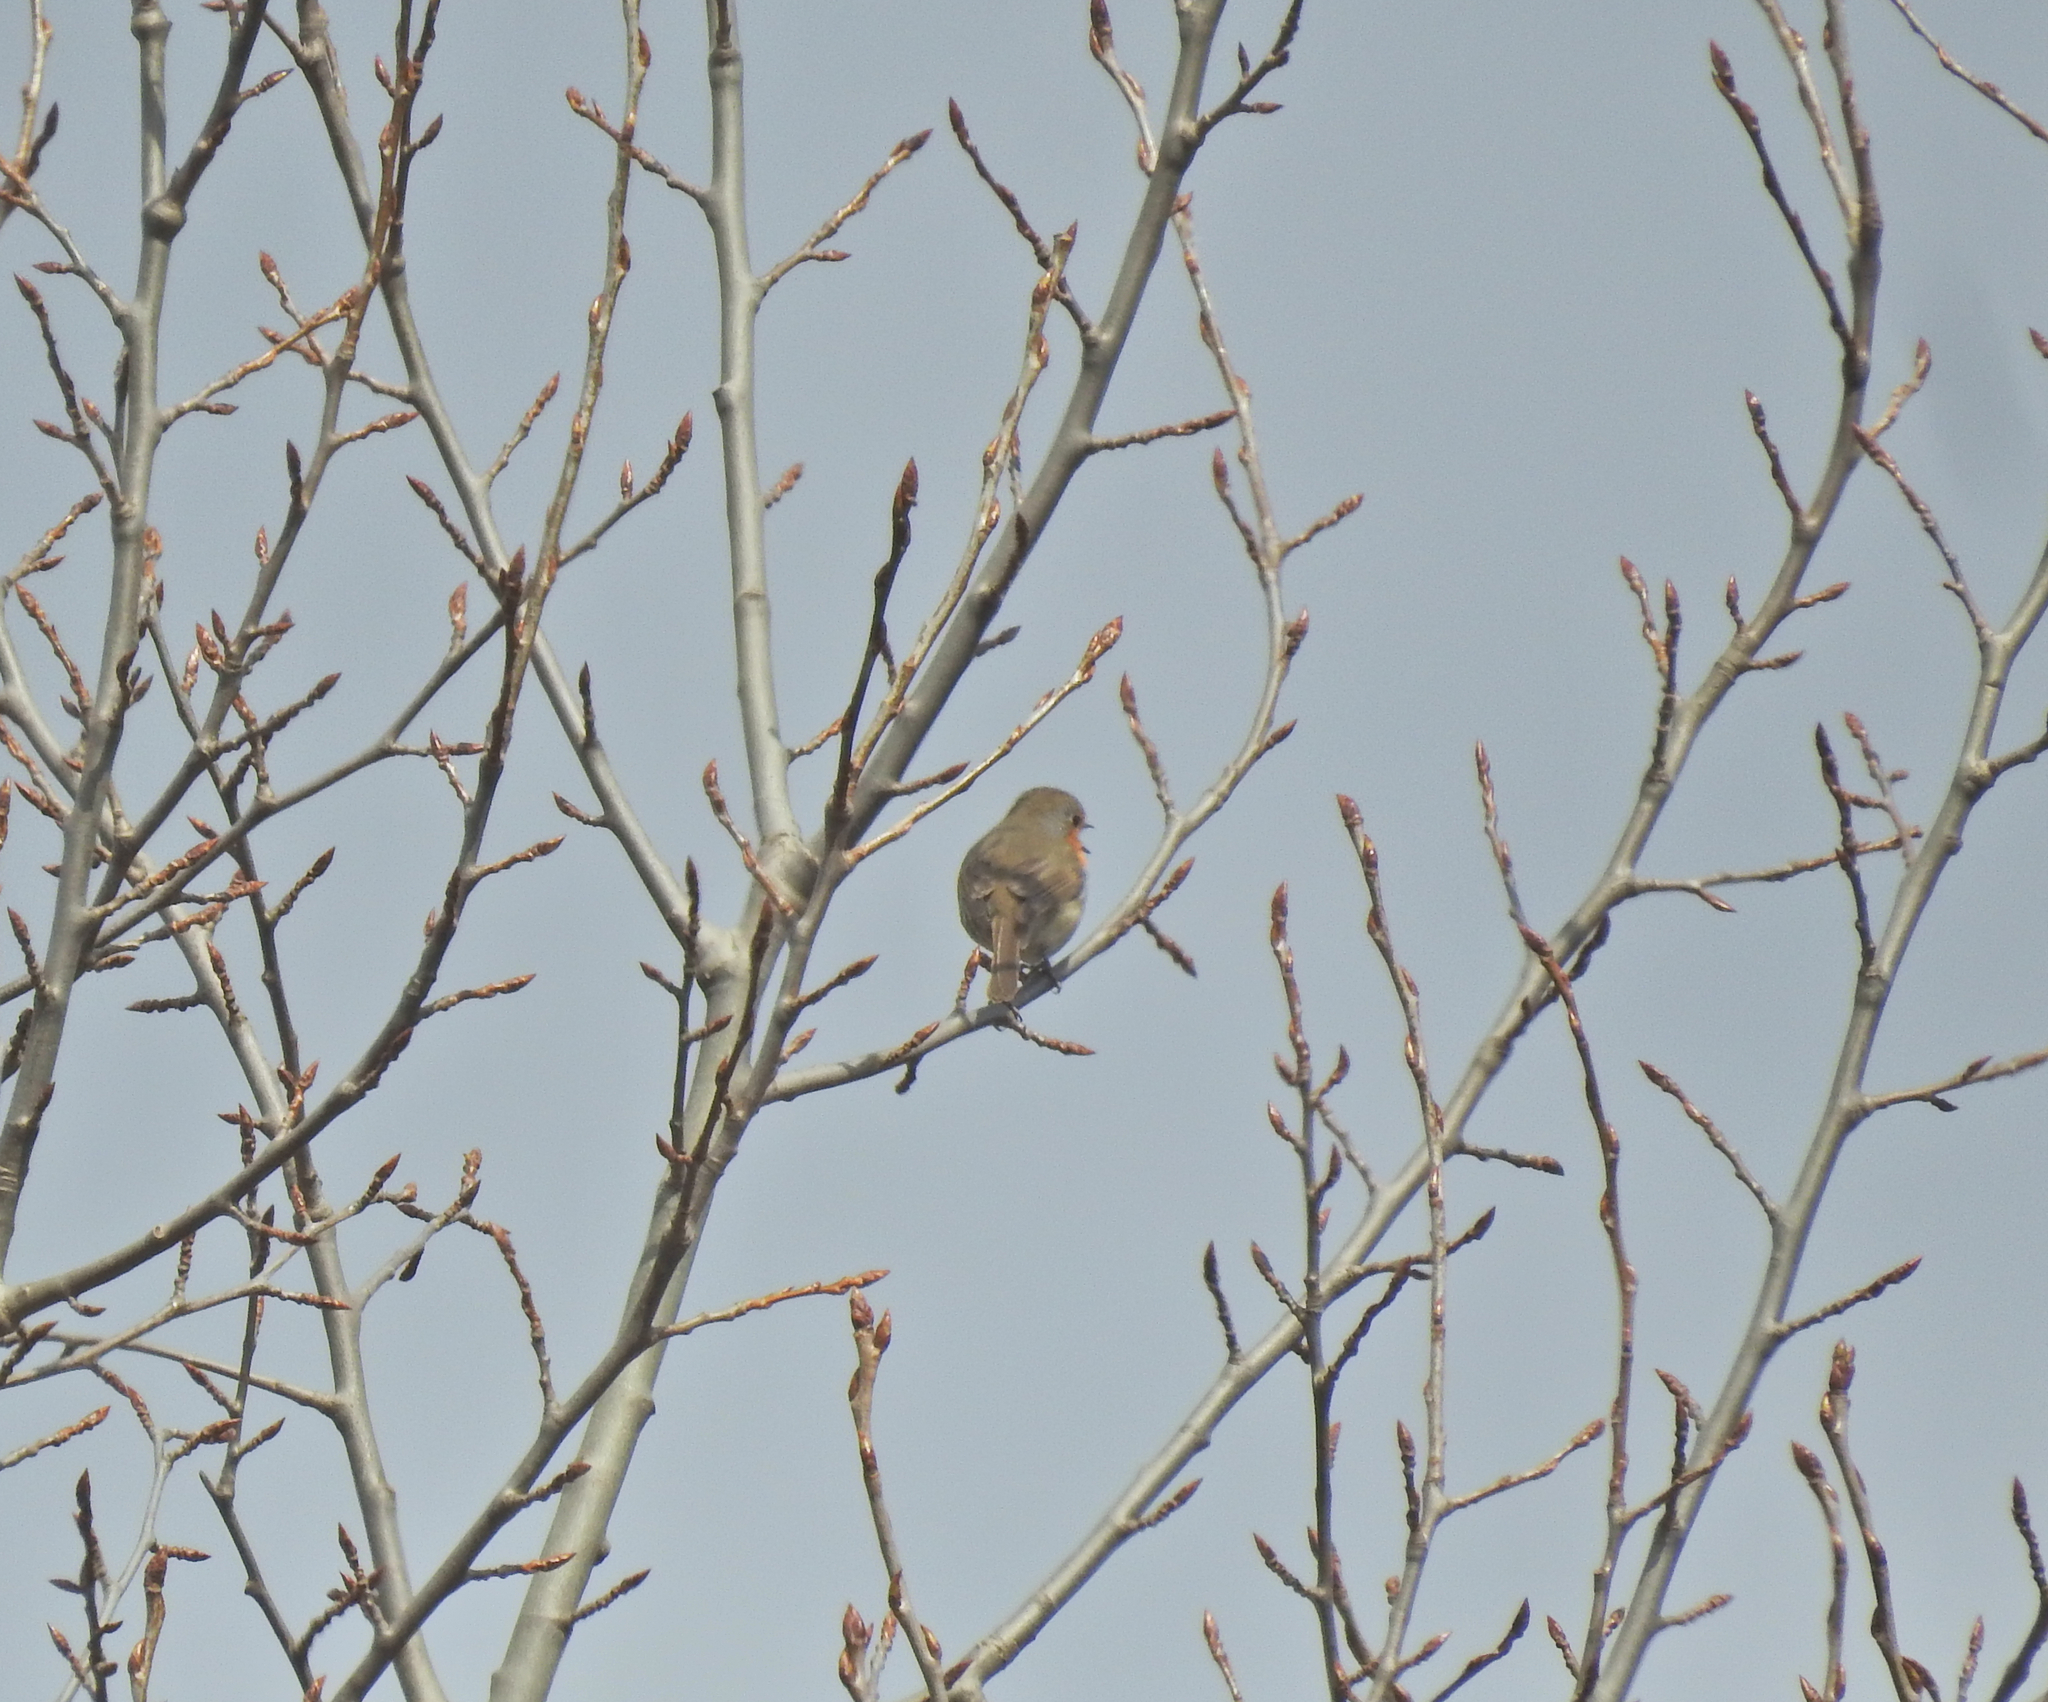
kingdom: Animalia
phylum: Chordata
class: Aves
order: Passeriformes
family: Muscicapidae
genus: Erithacus
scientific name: Erithacus rubecula
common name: European robin
